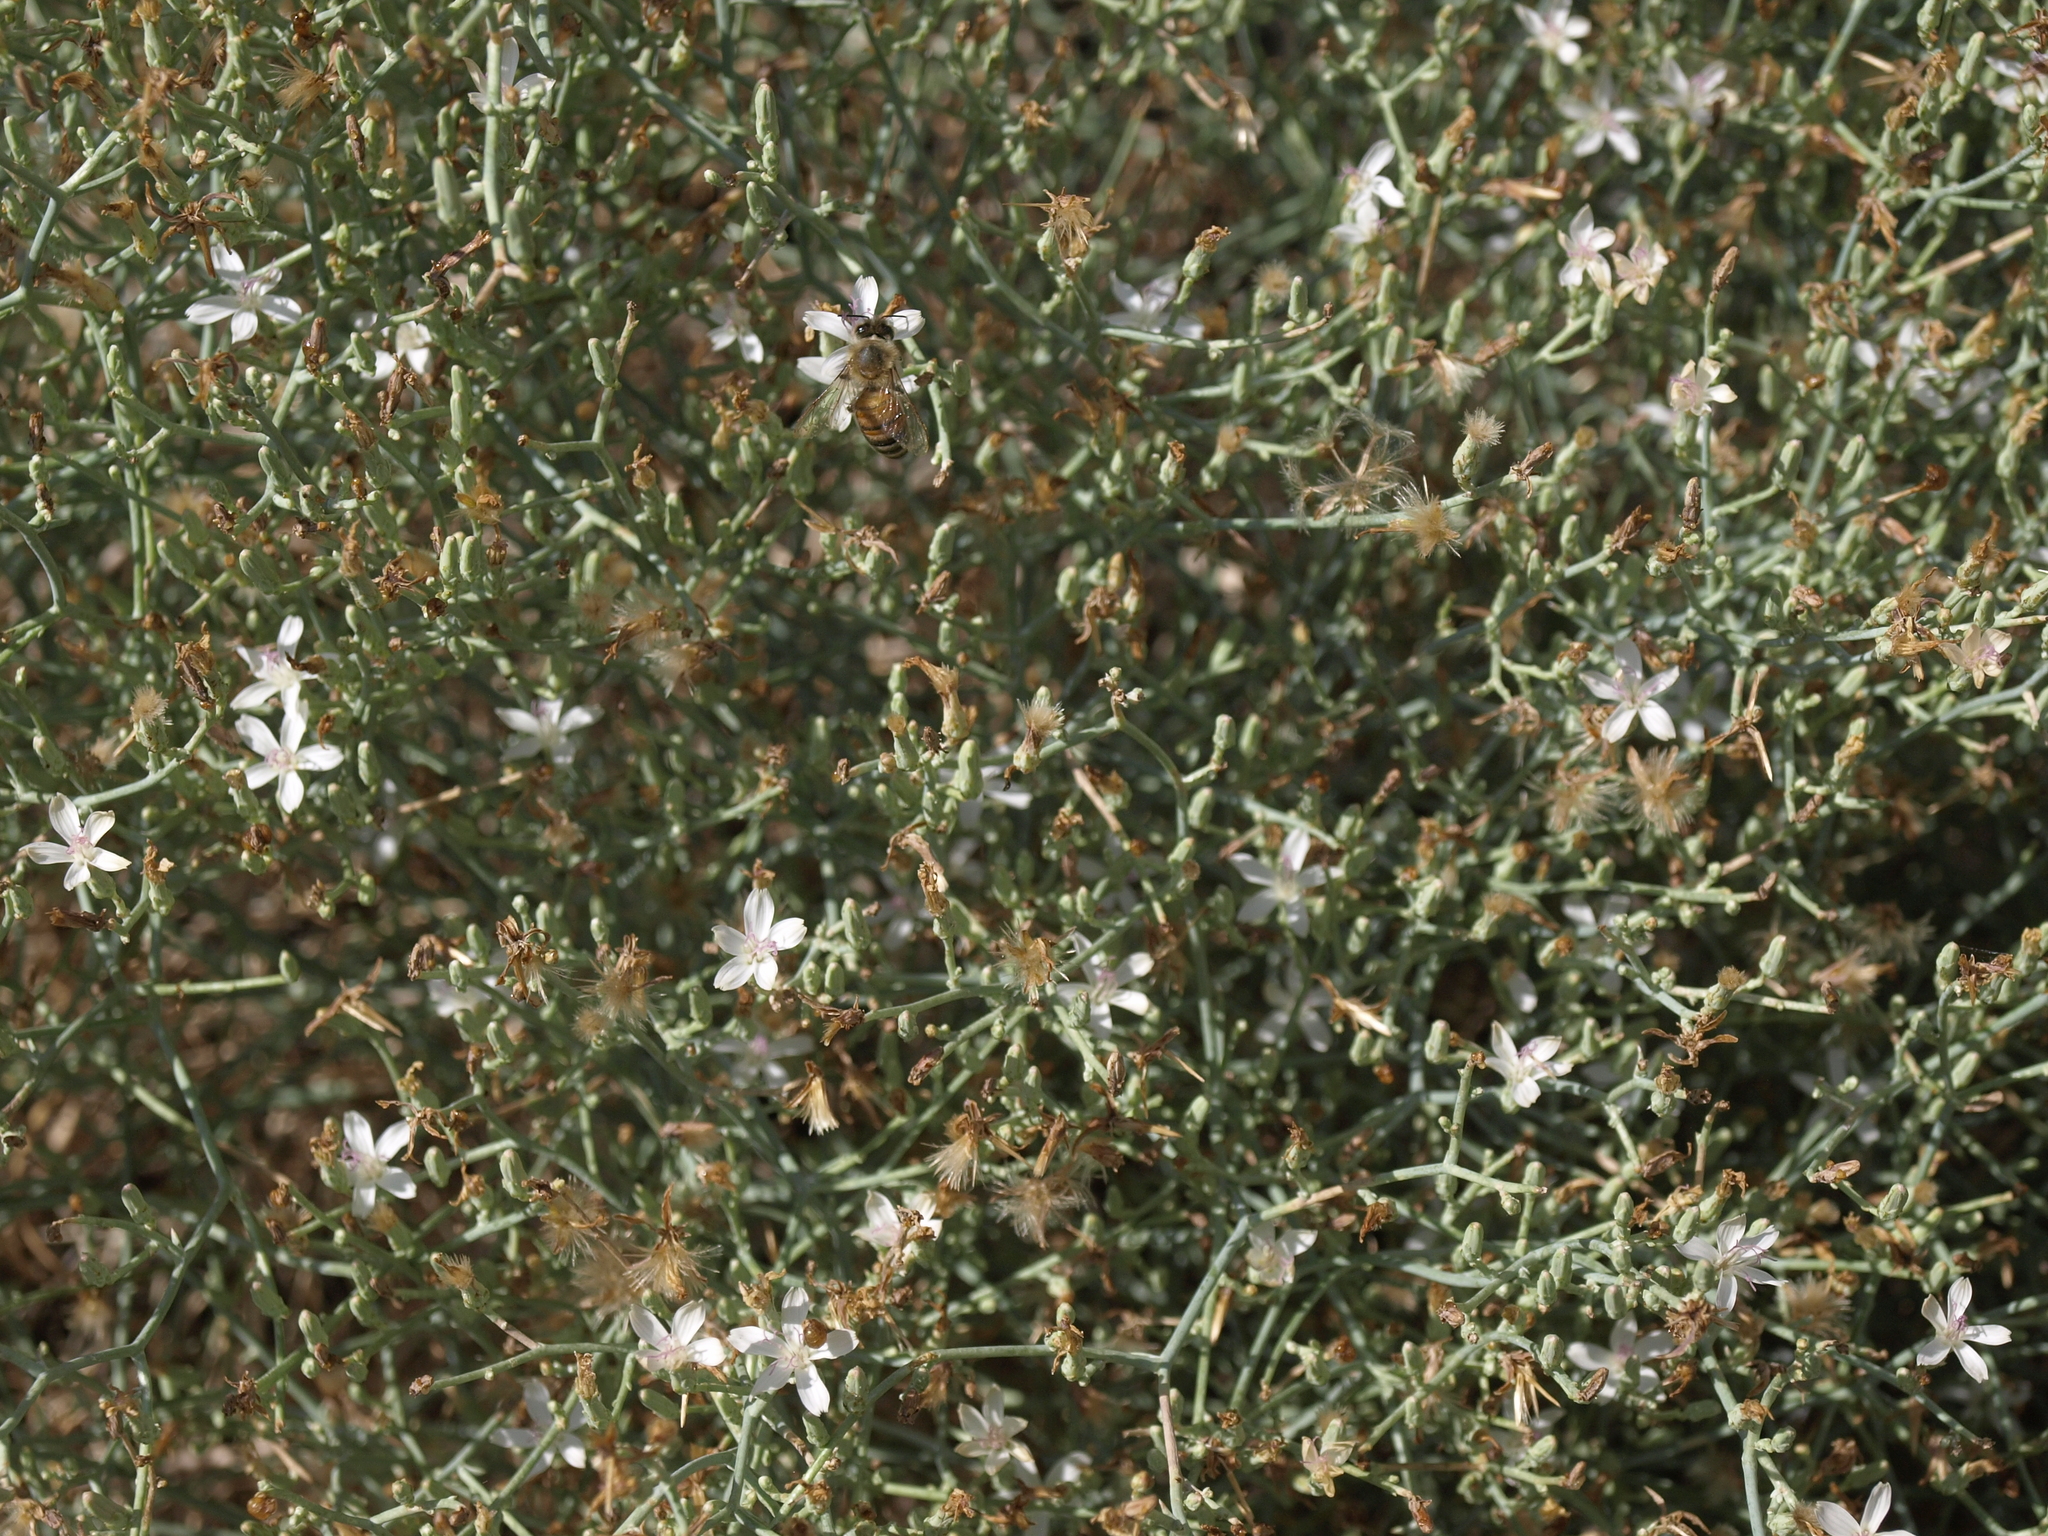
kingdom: Plantae
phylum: Tracheophyta
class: Magnoliopsida
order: Asterales
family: Asteraceae
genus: Stephanomeria
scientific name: Stephanomeria pauciflora
